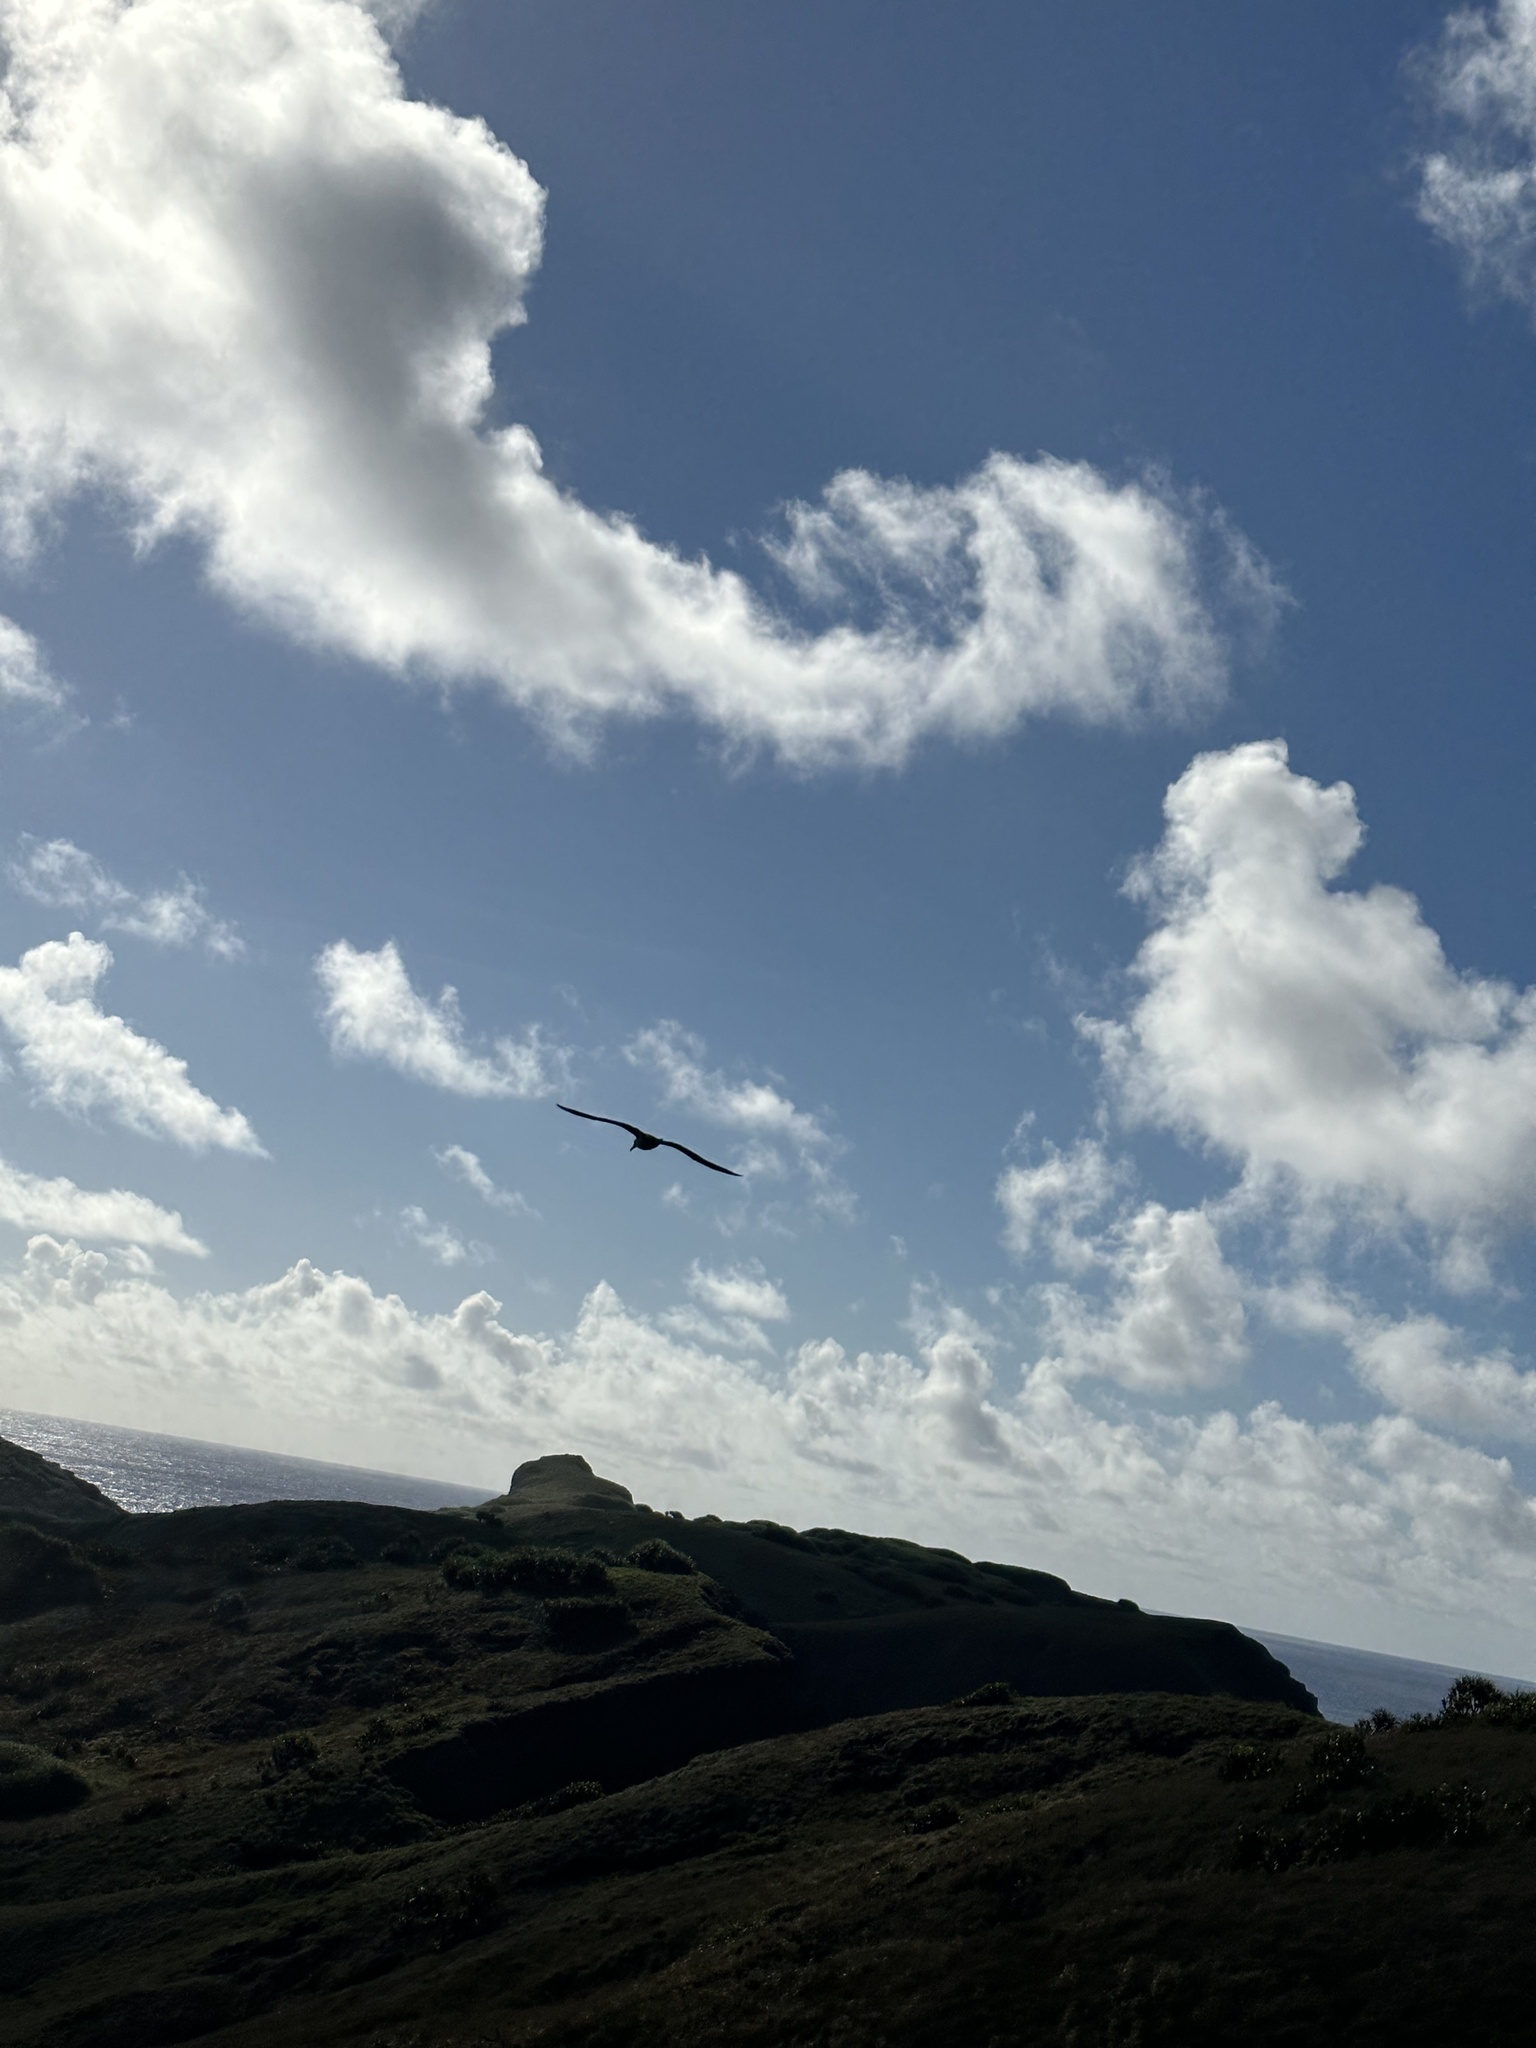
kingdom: Animalia
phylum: Chordata
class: Aves
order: Procellariiformes
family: Diomedeidae
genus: Phoebastria
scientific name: Phoebastria nigripes
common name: Black-footed albatross
